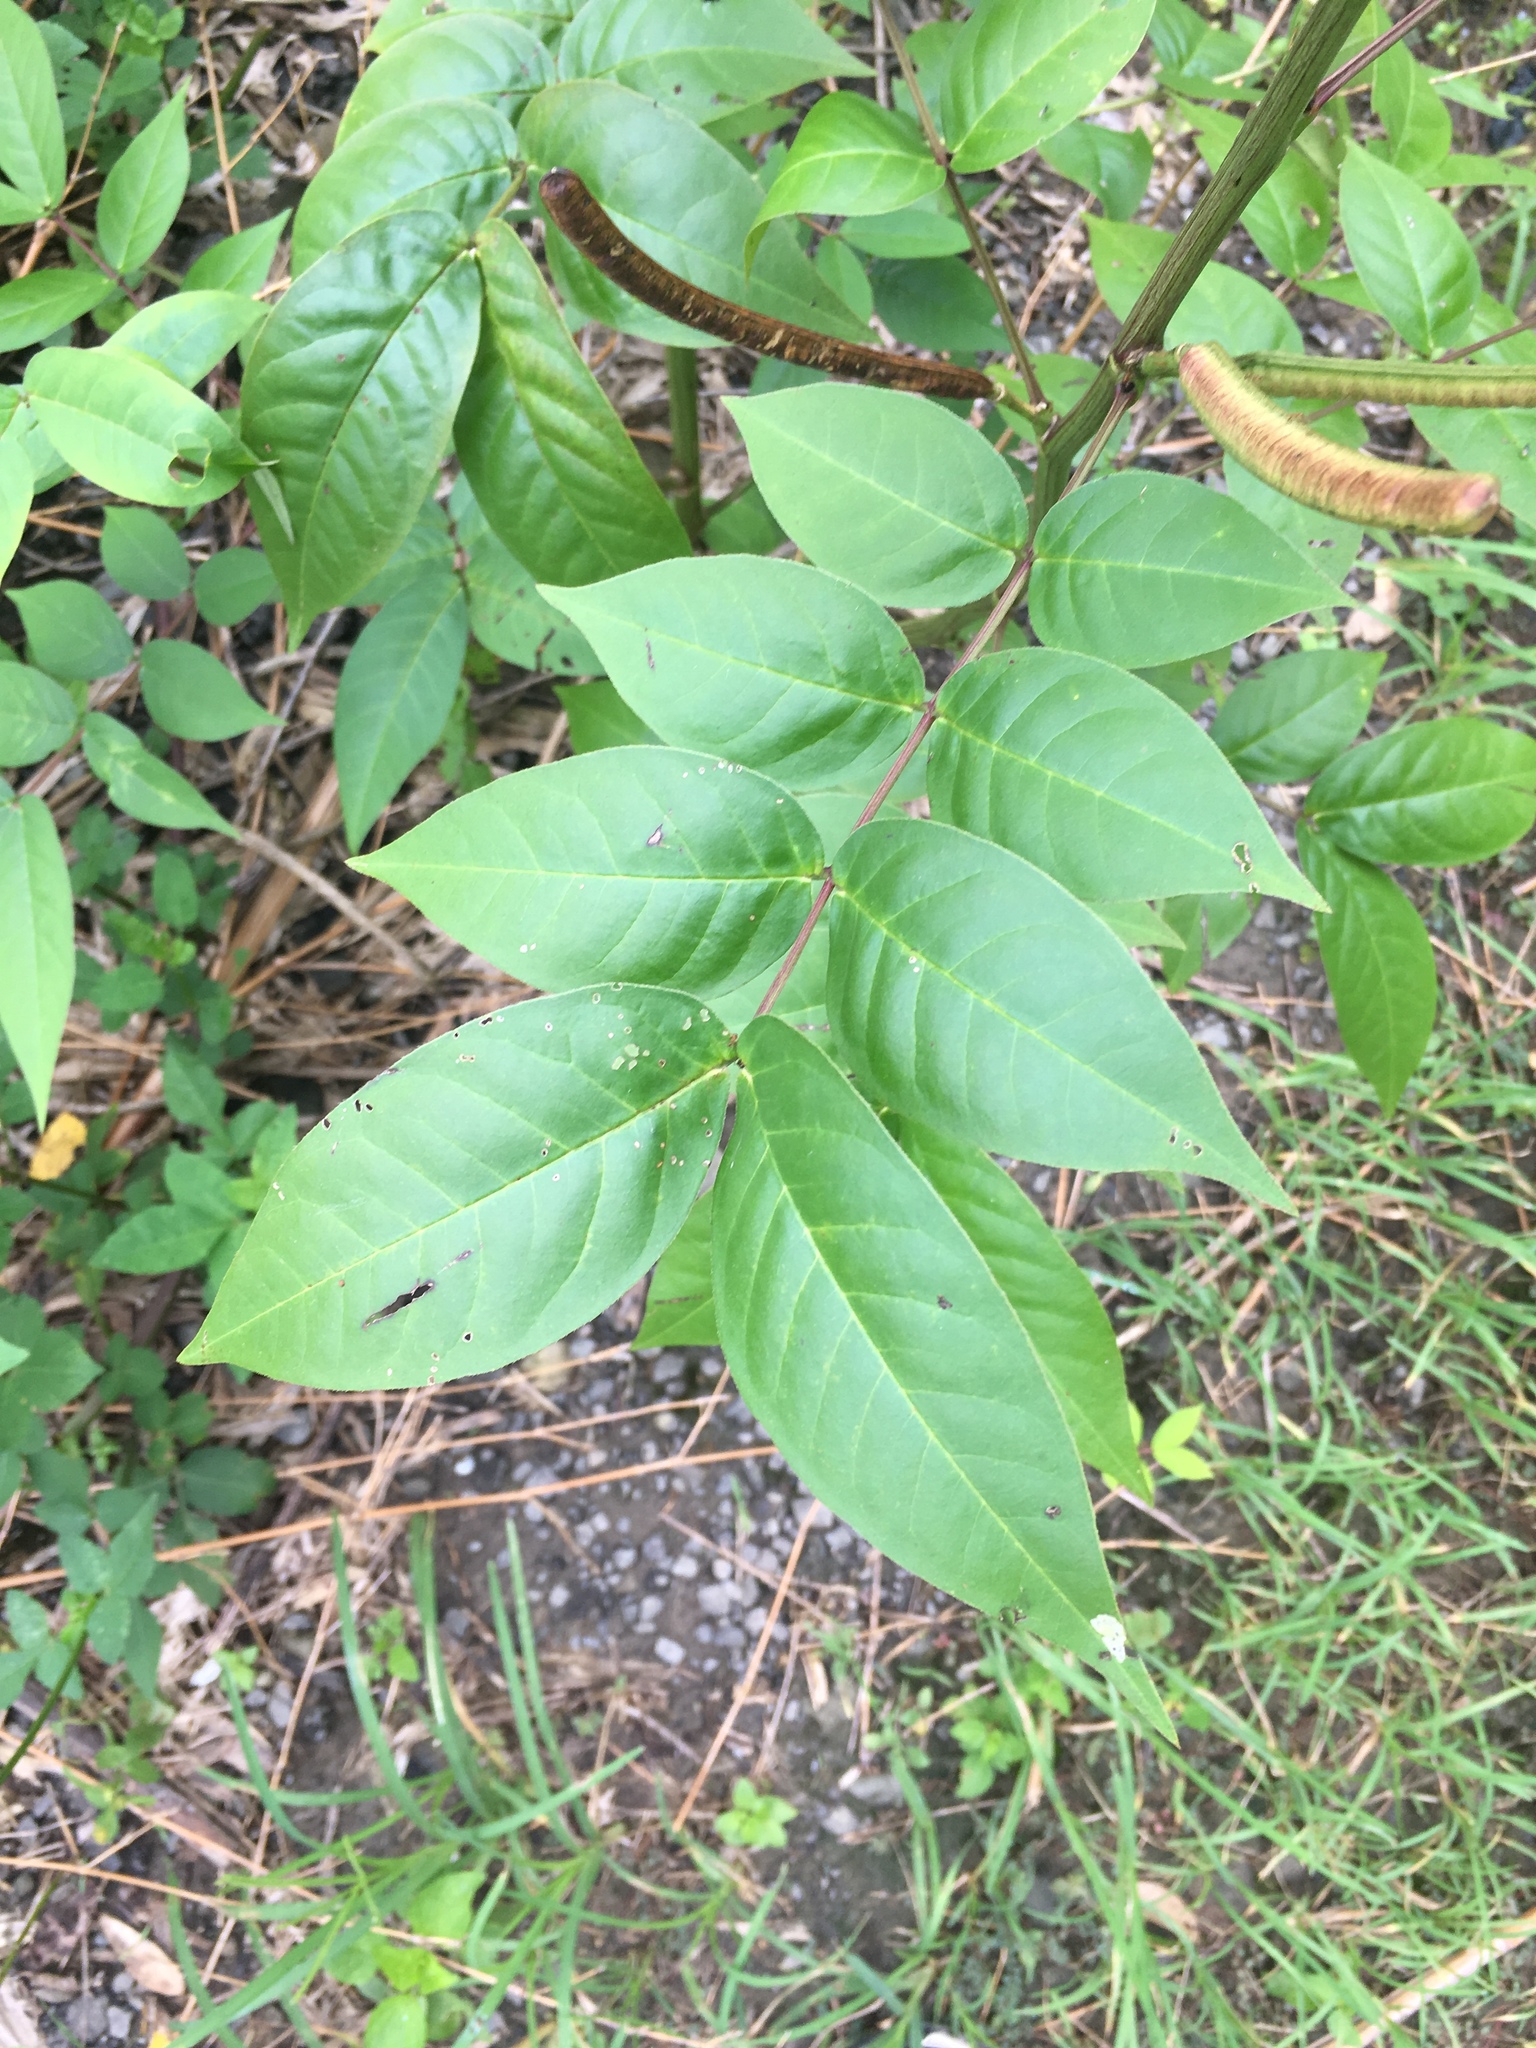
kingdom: Plantae
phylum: Tracheophyta
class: Magnoliopsida
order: Fabales
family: Fabaceae
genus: Senna
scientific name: Senna occidentalis
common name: Septicweed
